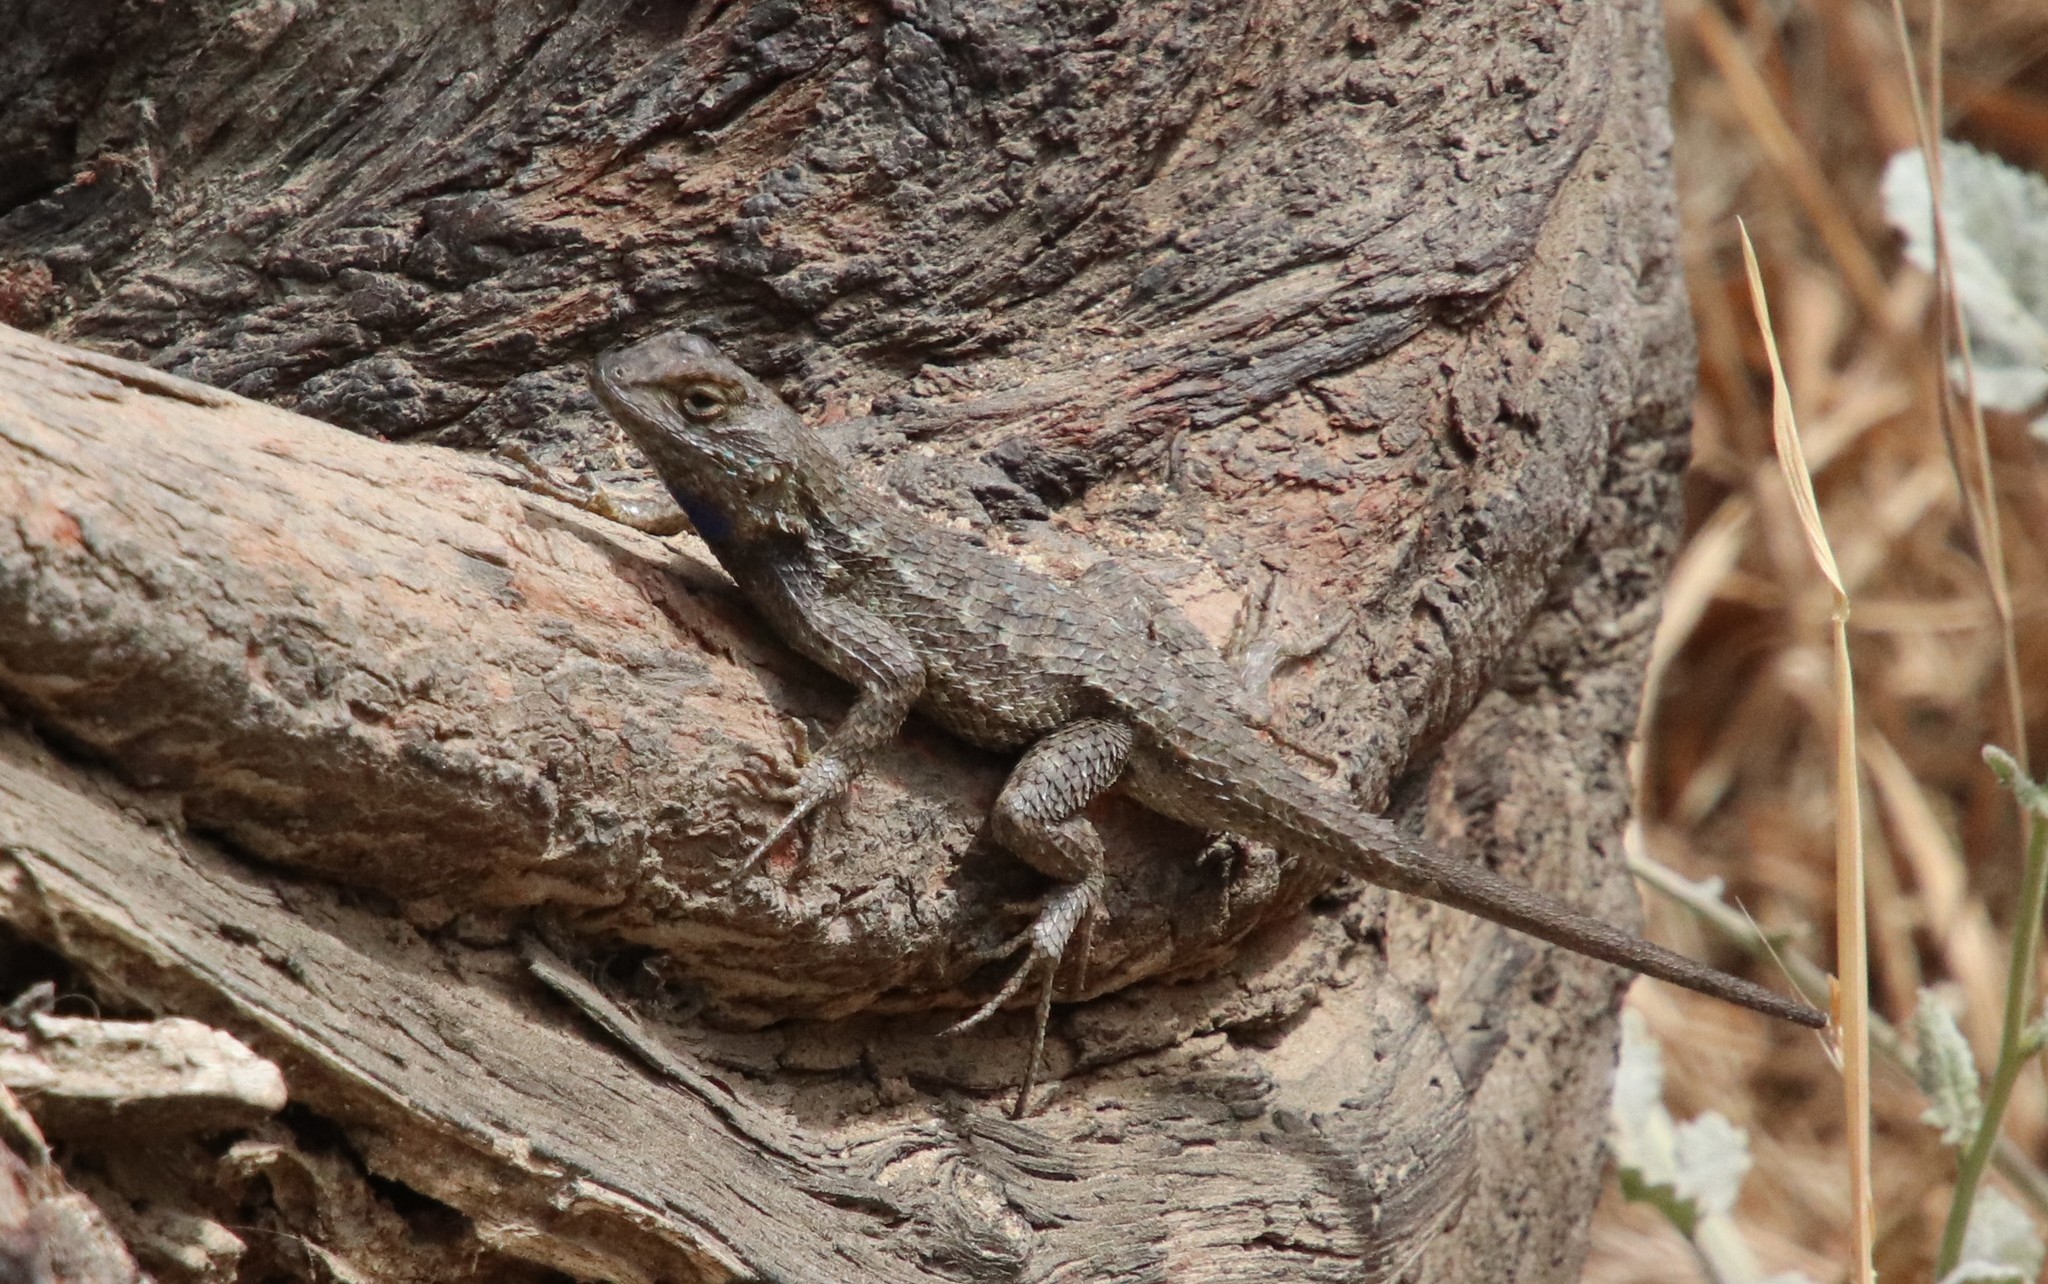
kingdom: Animalia
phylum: Chordata
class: Squamata
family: Phrynosomatidae
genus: Sceloporus
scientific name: Sceloporus occidentalis
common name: Western fence lizard
